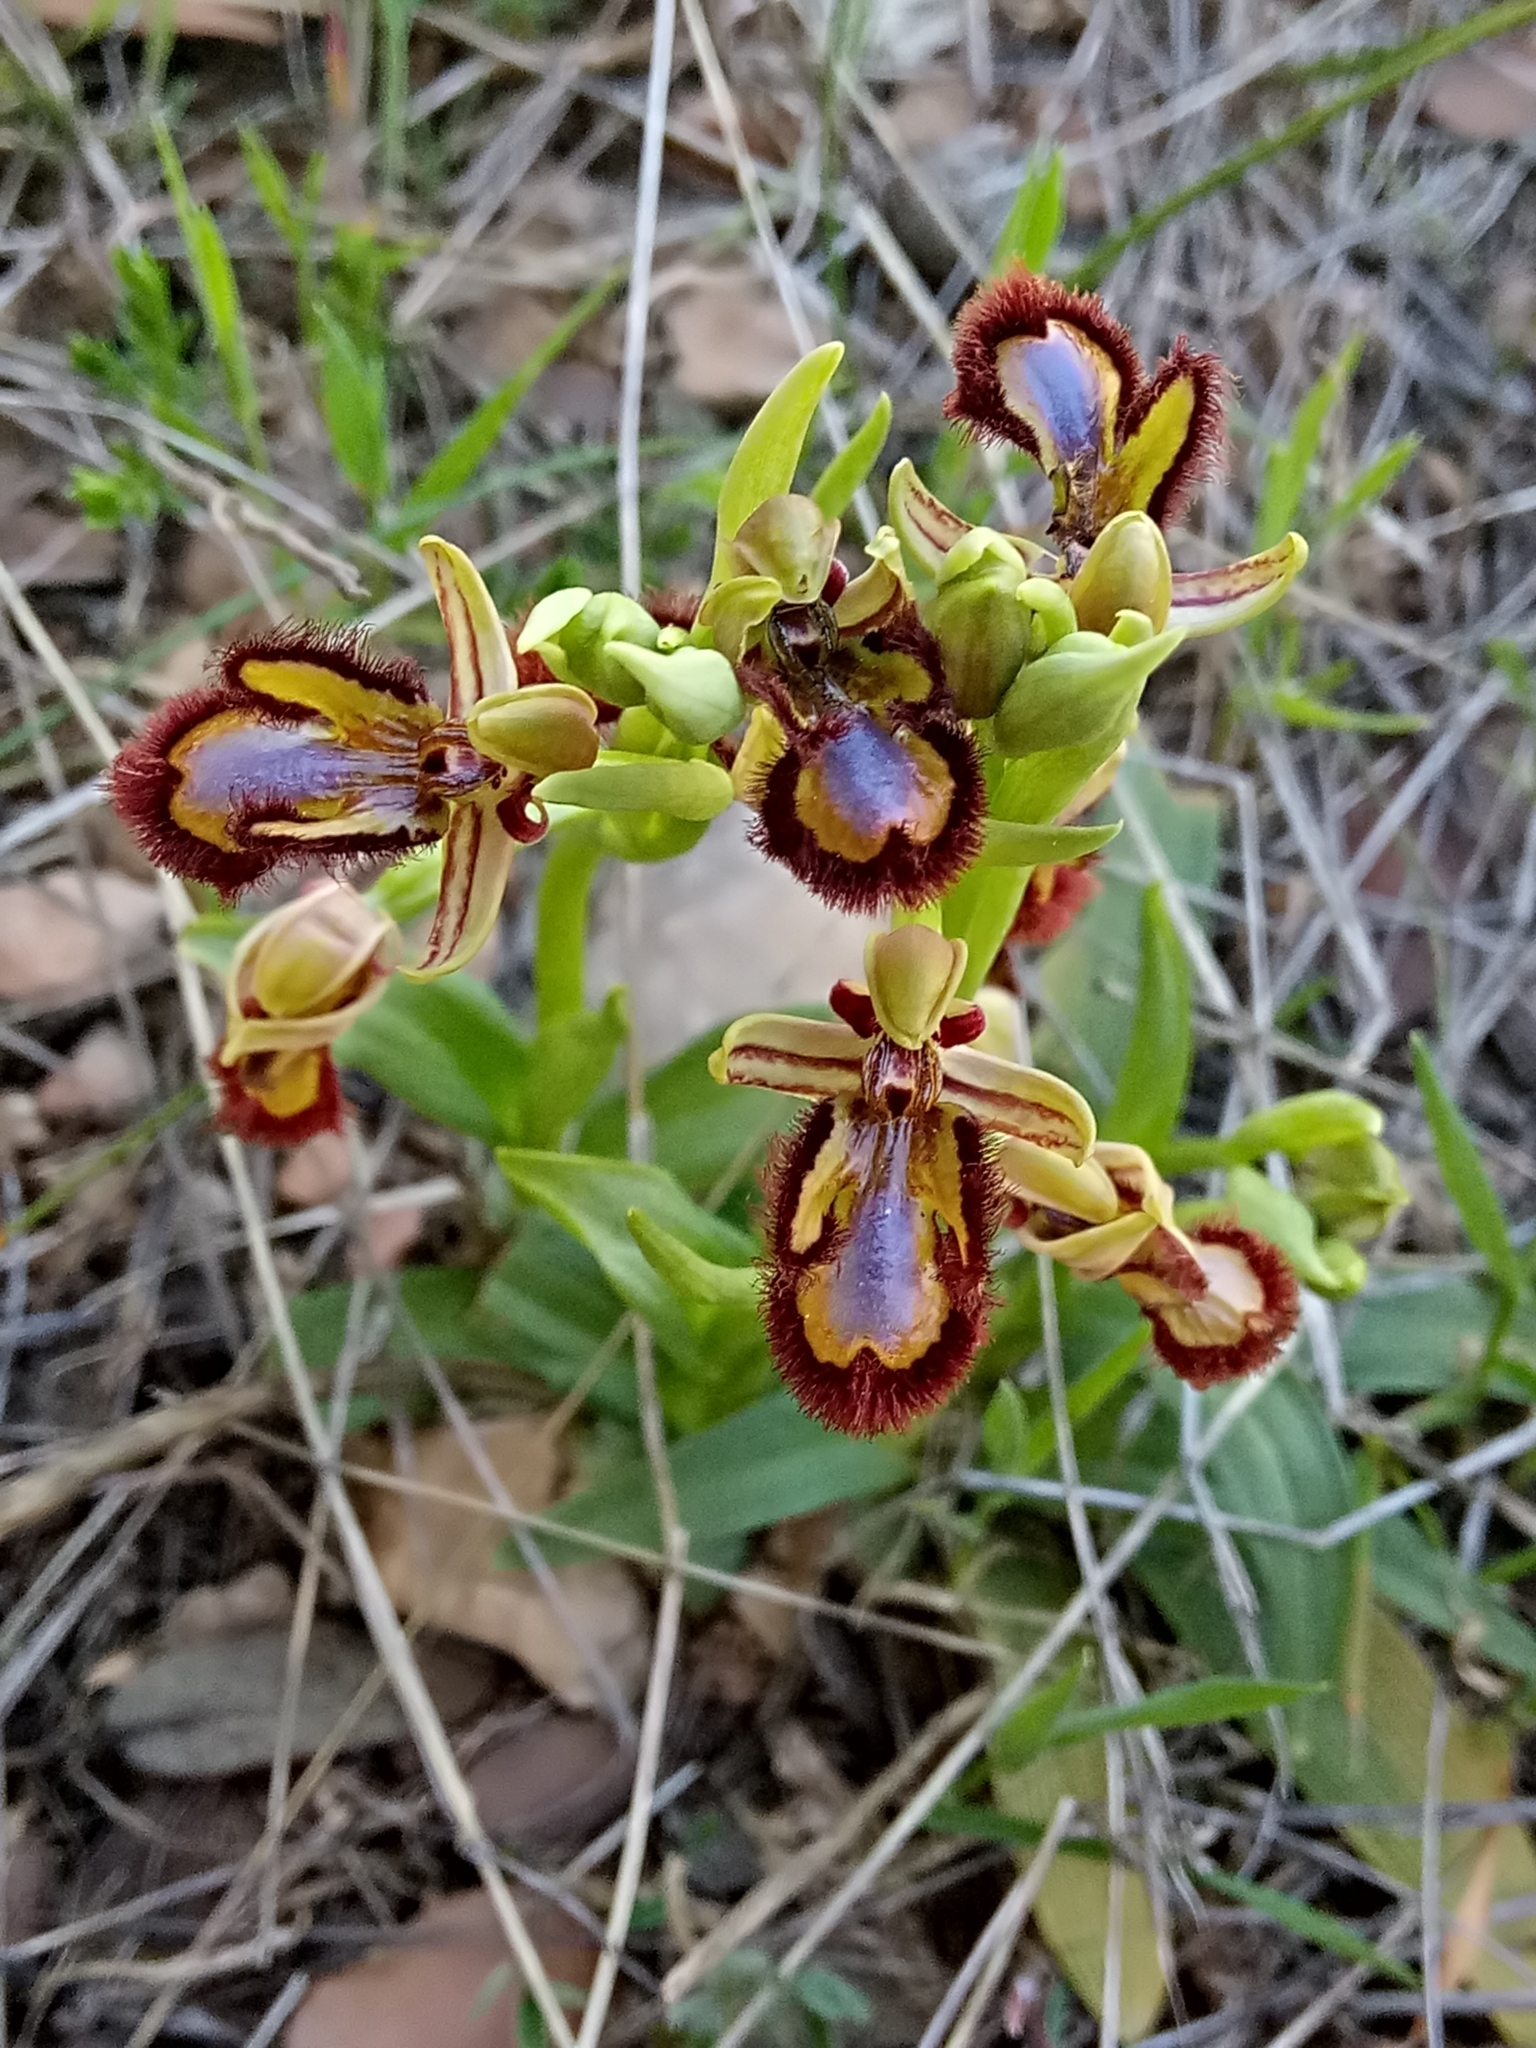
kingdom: Plantae
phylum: Tracheophyta
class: Liliopsida
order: Asparagales
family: Orchidaceae
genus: Ophrys
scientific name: Ophrys speculum
